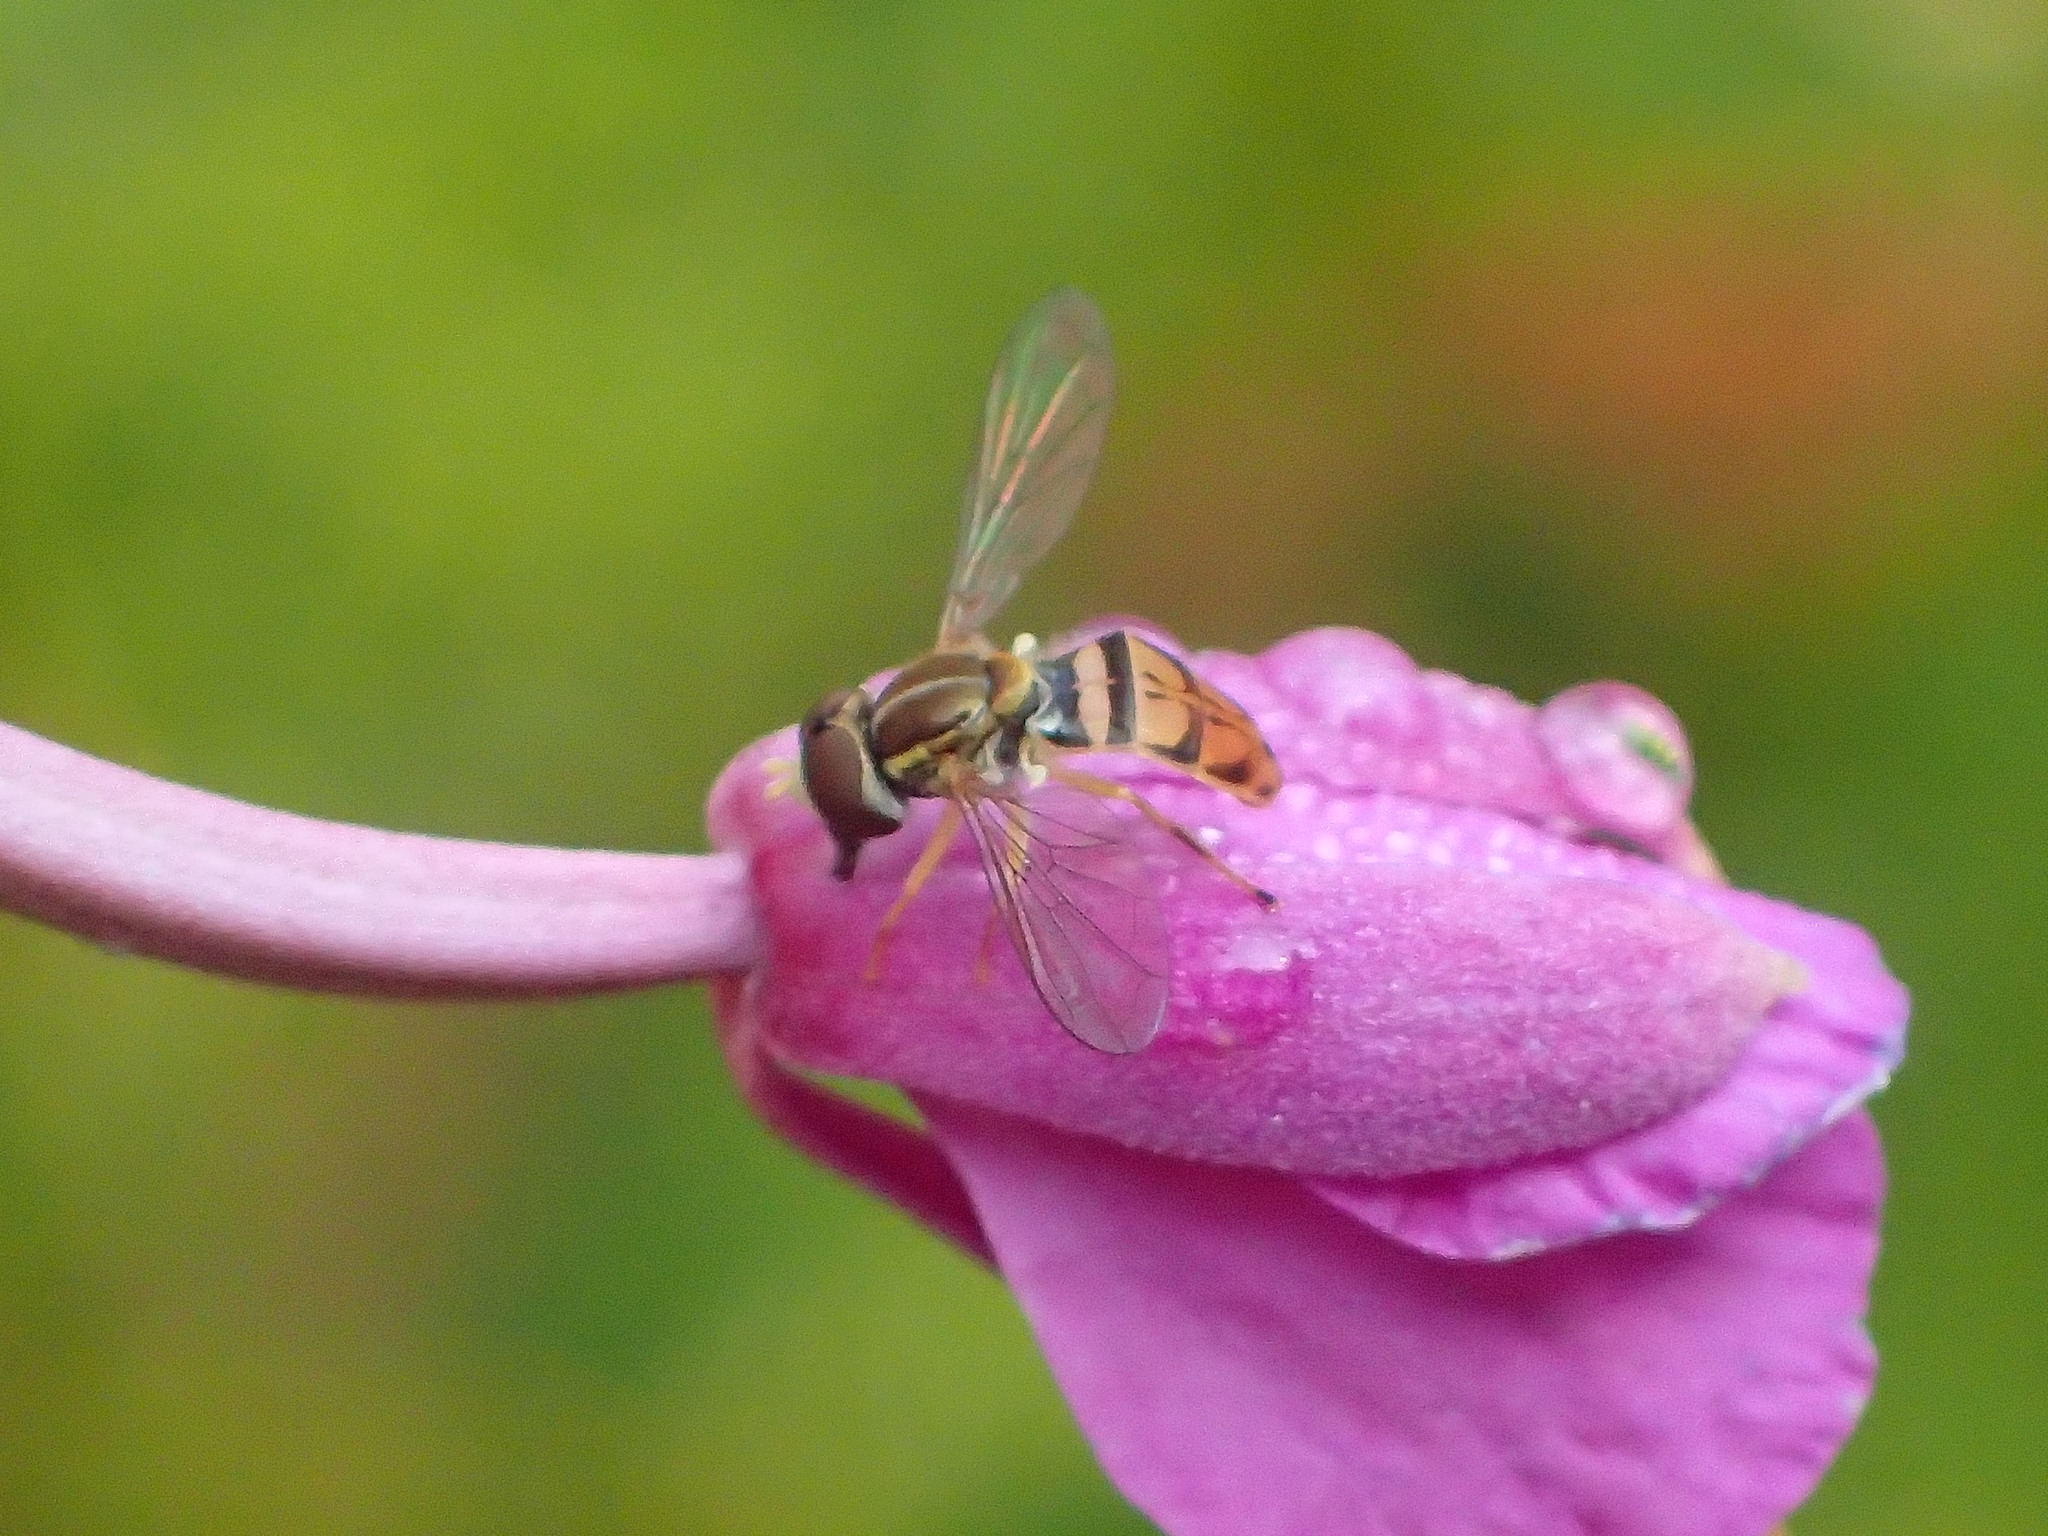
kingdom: Animalia
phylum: Arthropoda
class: Insecta
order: Diptera
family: Syrphidae
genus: Toxomerus
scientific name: Toxomerus marginatus
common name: Syrphid fly
